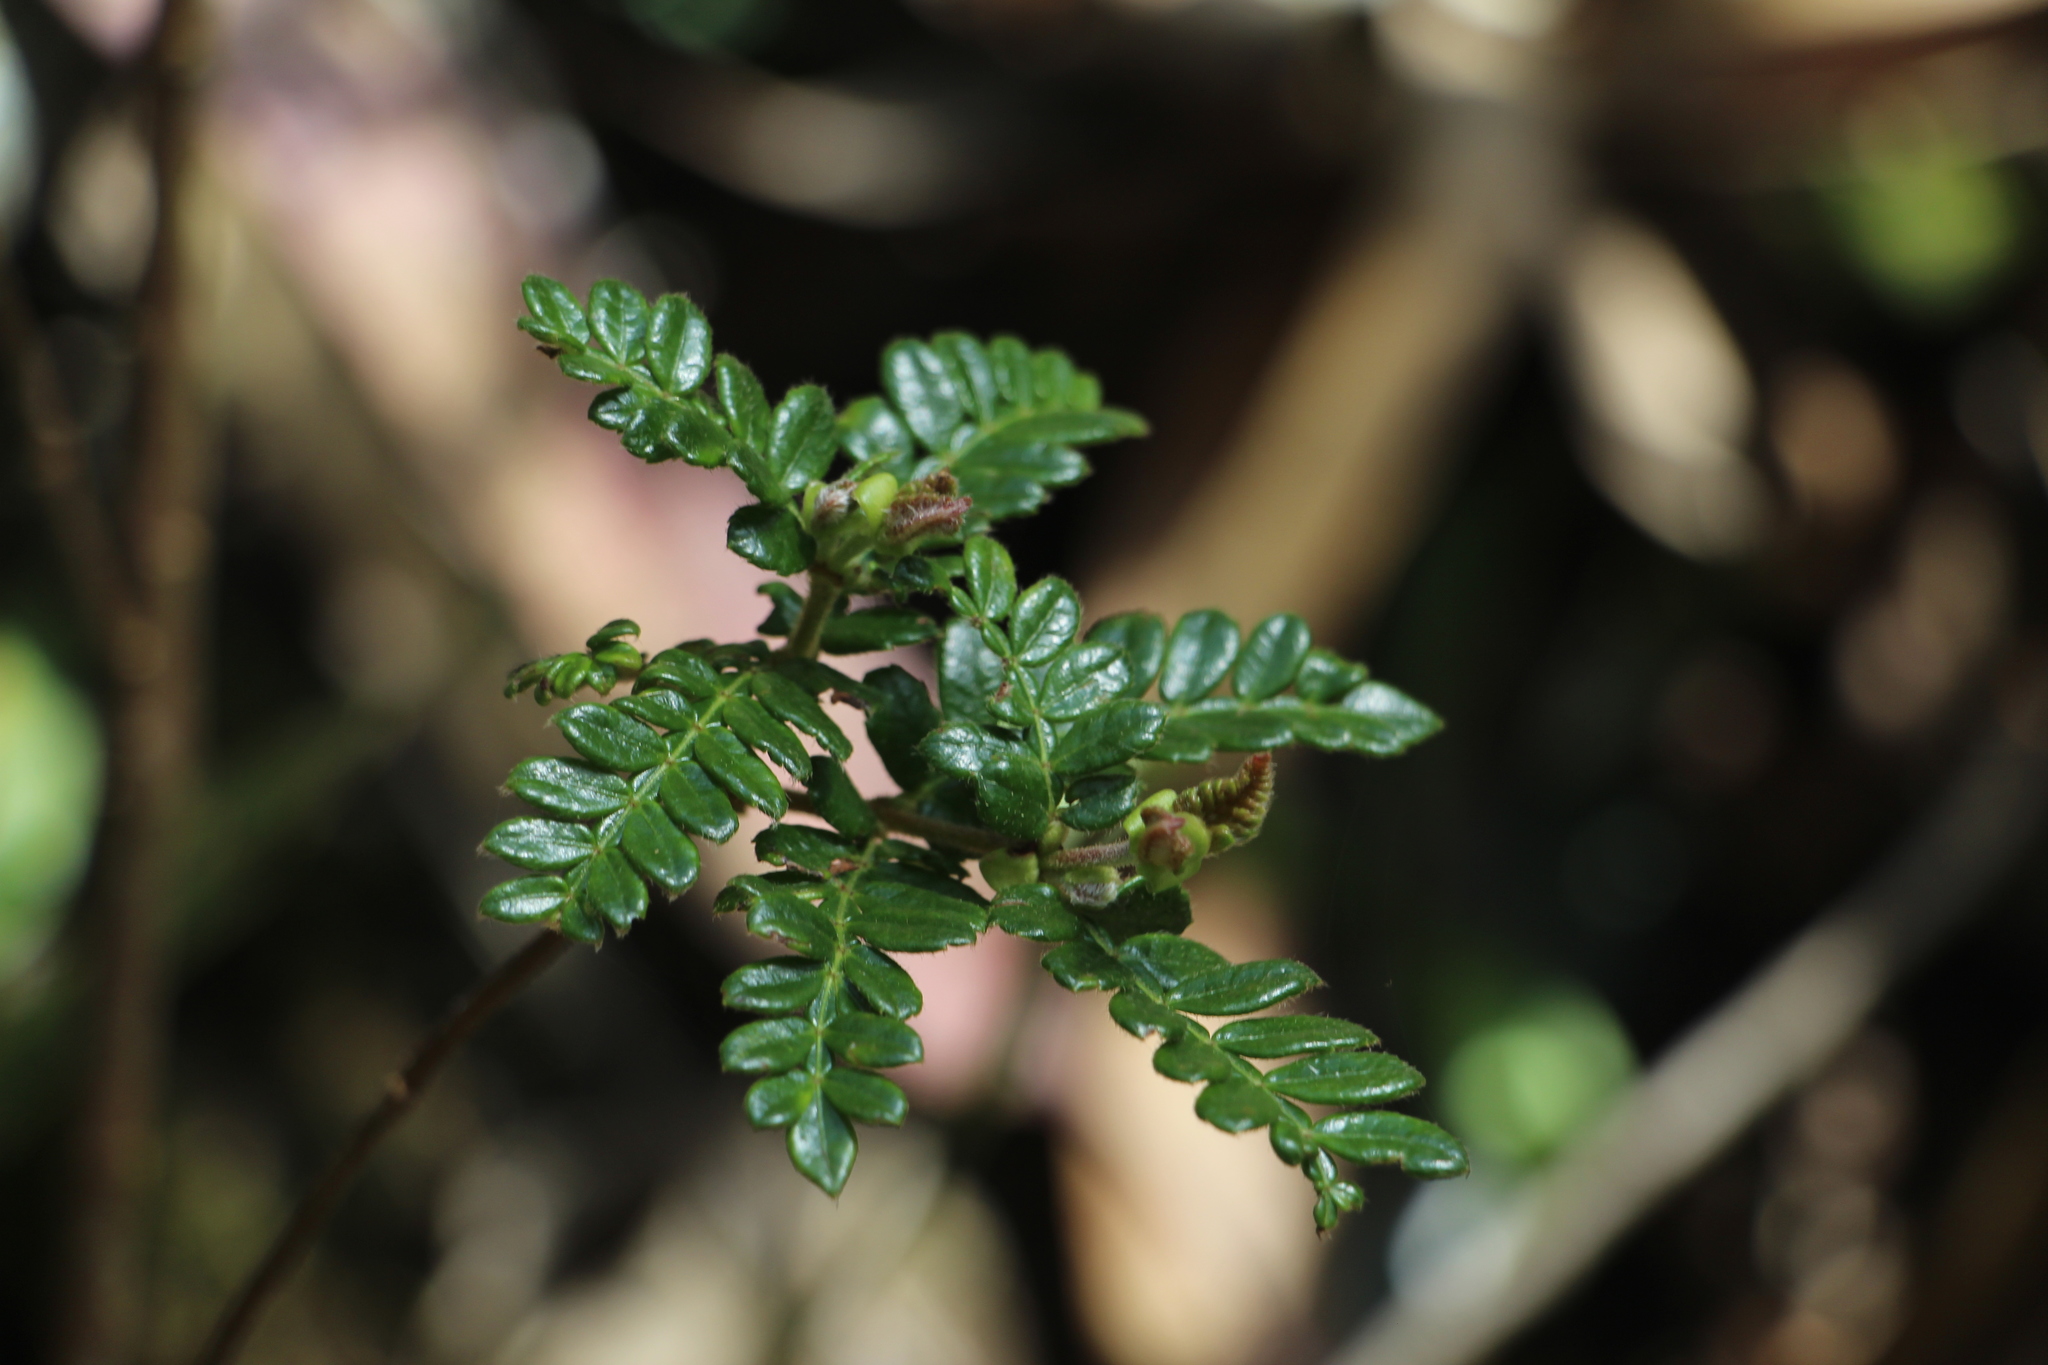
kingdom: Plantae
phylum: Tracheophyta
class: Magnoliopsida
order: Oxalidales
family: Cunoniaceae
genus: Weinmannia
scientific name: Weinmannia tomentosa
